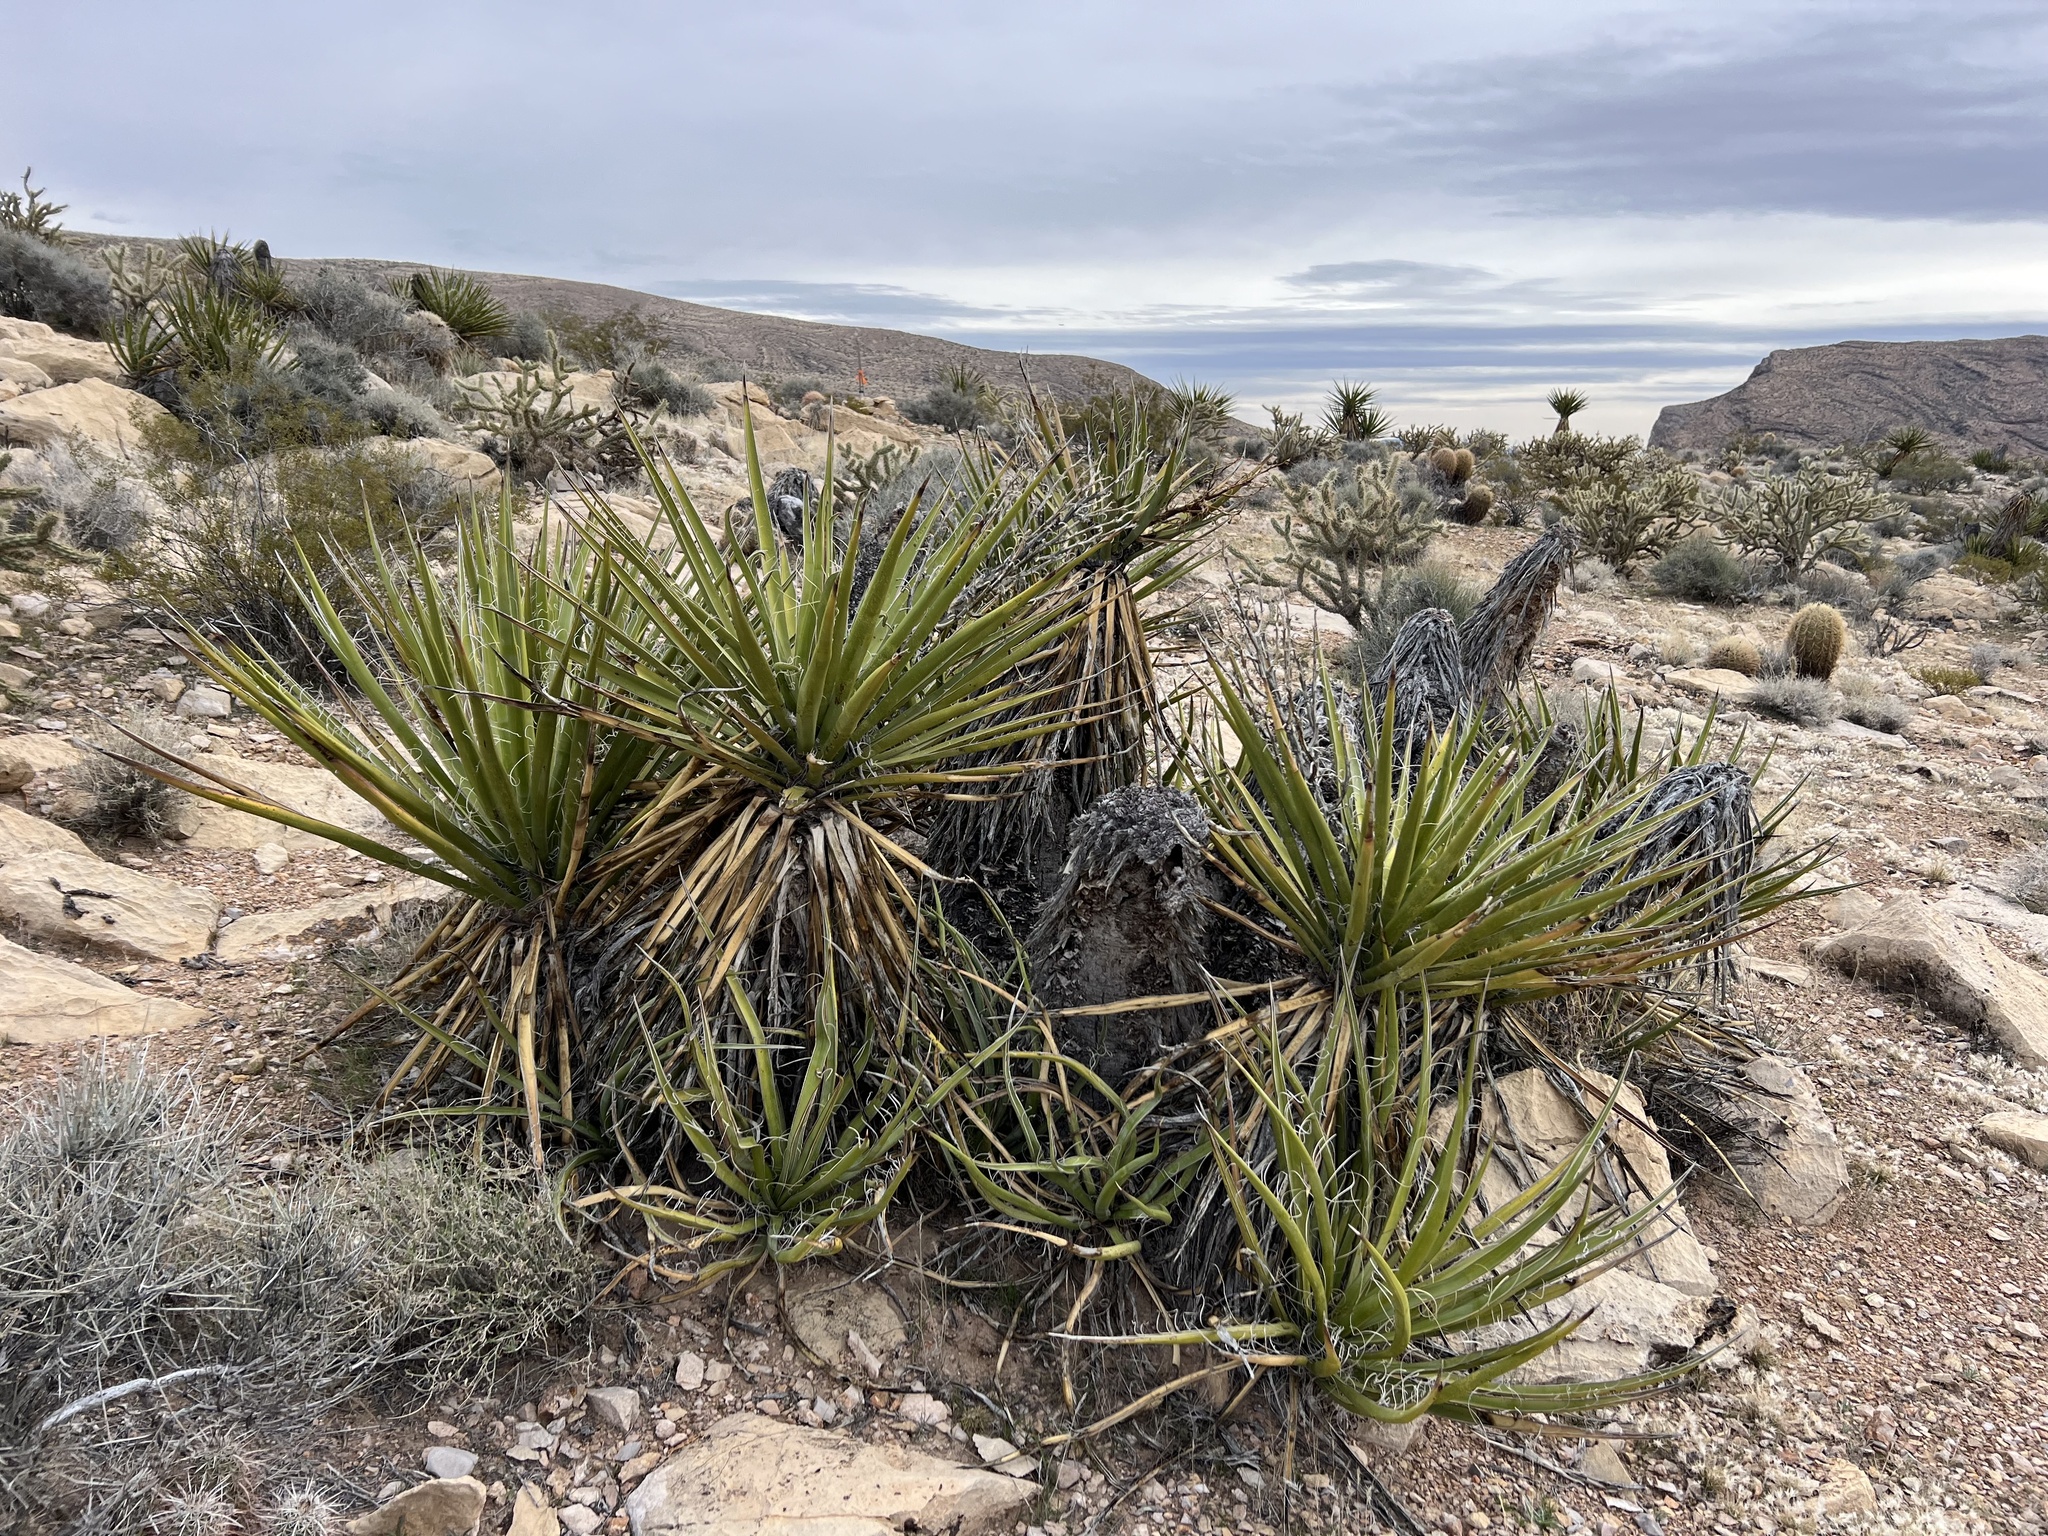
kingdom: Plantae
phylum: Tracheophyta
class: Liliopsida
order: Asparagales
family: Asparagaceae
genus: Yucca
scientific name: Yucca schidigera
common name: Mojave yucca
